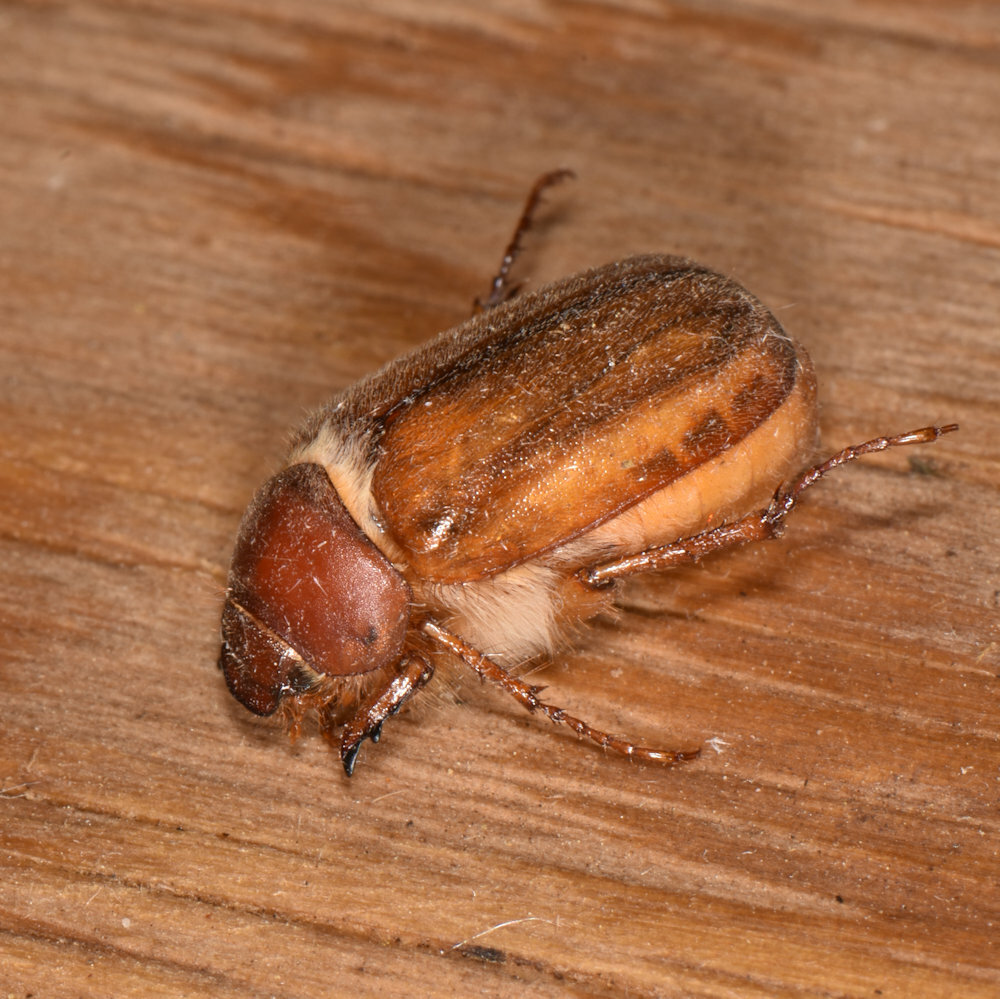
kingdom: Animalia
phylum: Arthropoda
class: Insecta
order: Coleoptera
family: Scarabaeidae
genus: Amphimallon
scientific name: Amphimallon majale
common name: European chafer
